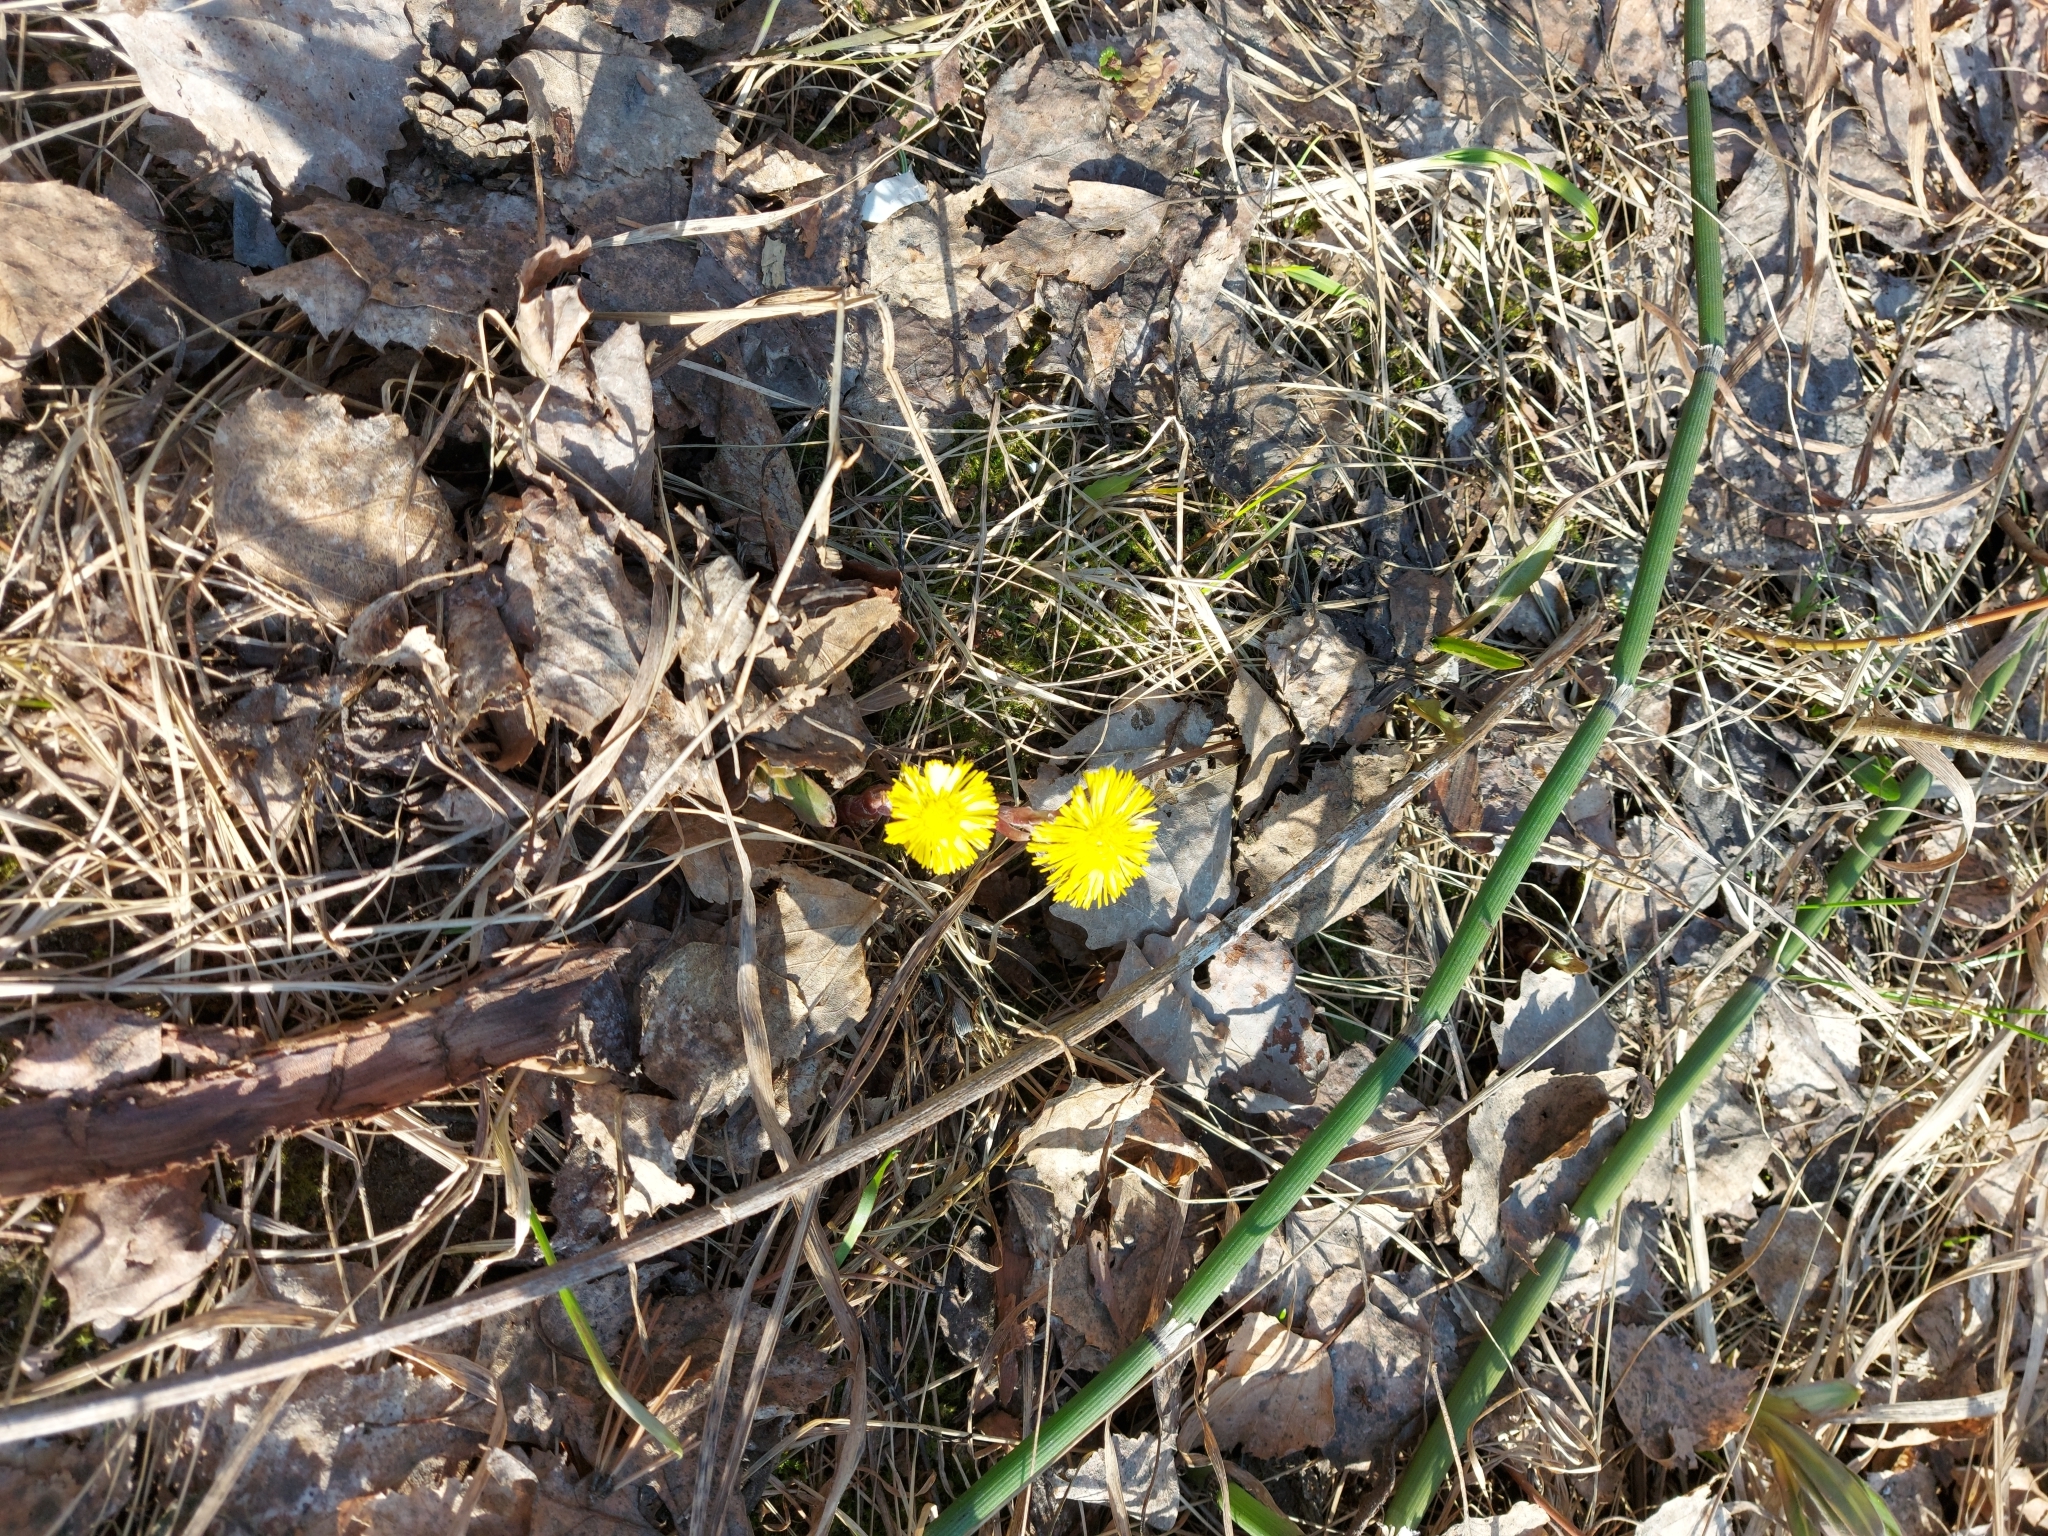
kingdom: Plantae
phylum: Tracheophyta
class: Magnoliopsida
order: Asterales
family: Asteraceae
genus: Tussilago
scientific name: Tussilago farfara
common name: Coltsfoot
